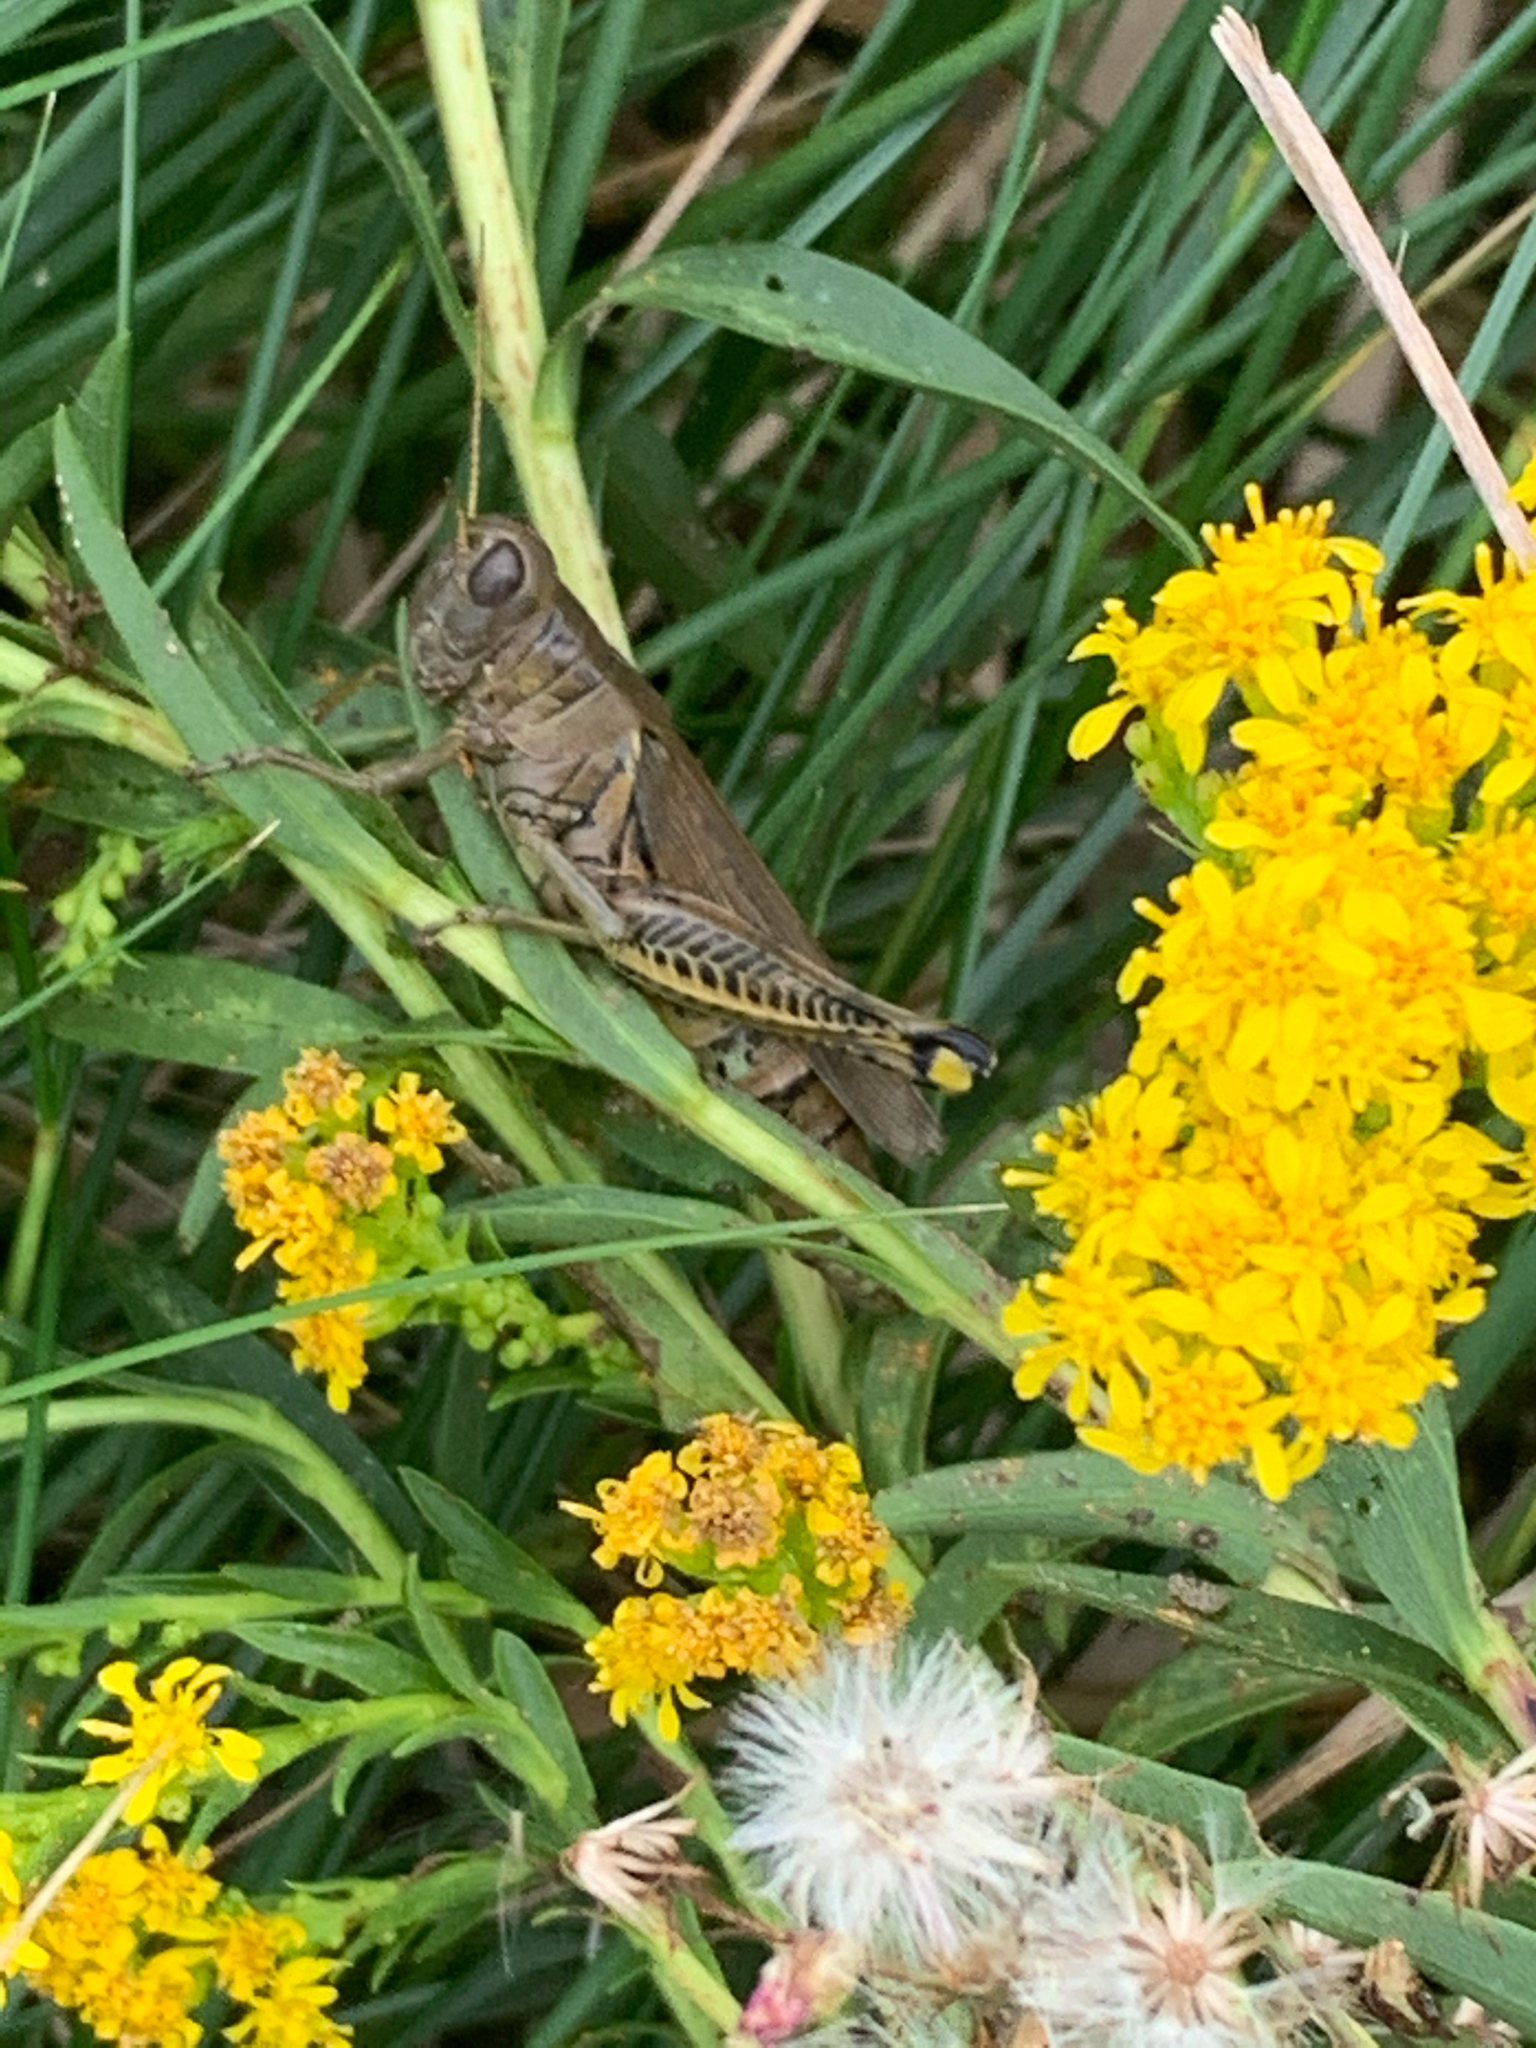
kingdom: Animalia
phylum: Arthropoda
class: Insecta
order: Orthoptera
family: Acrididae
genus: Melanoplus
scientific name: Melanoplus differentialis
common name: Differential grasshopper
